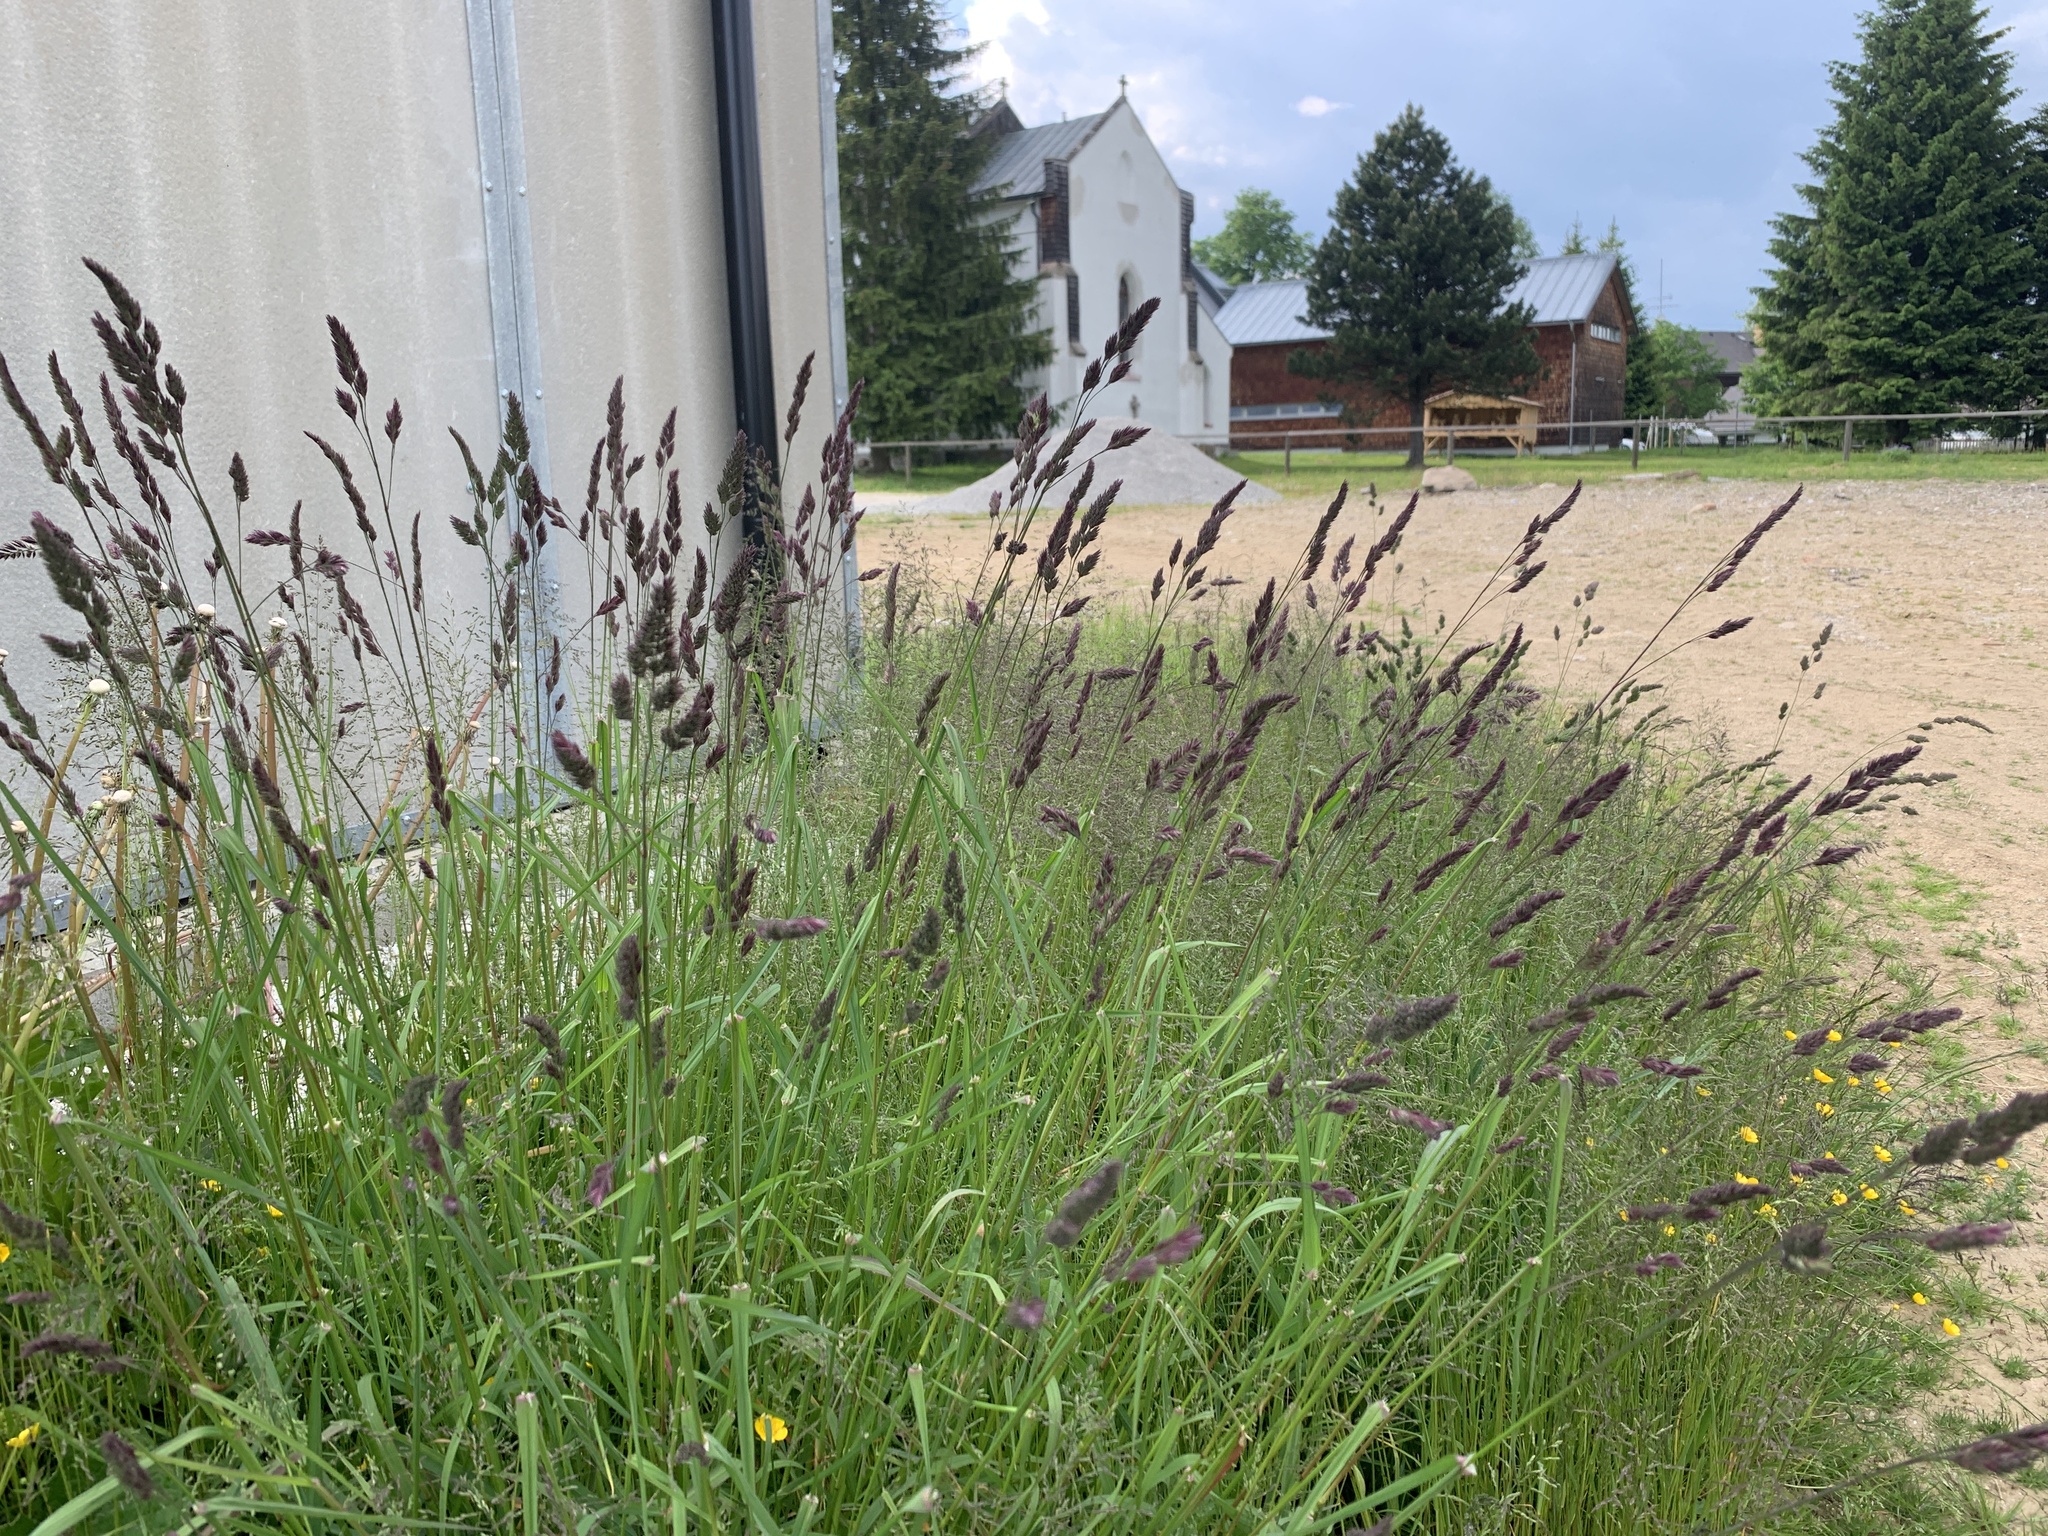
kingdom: Plantae
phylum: Tracheophyta
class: Liliopsida
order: Poales
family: Poaceae
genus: Dactylis
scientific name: Dactylis glomerata
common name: Orchardgrass
